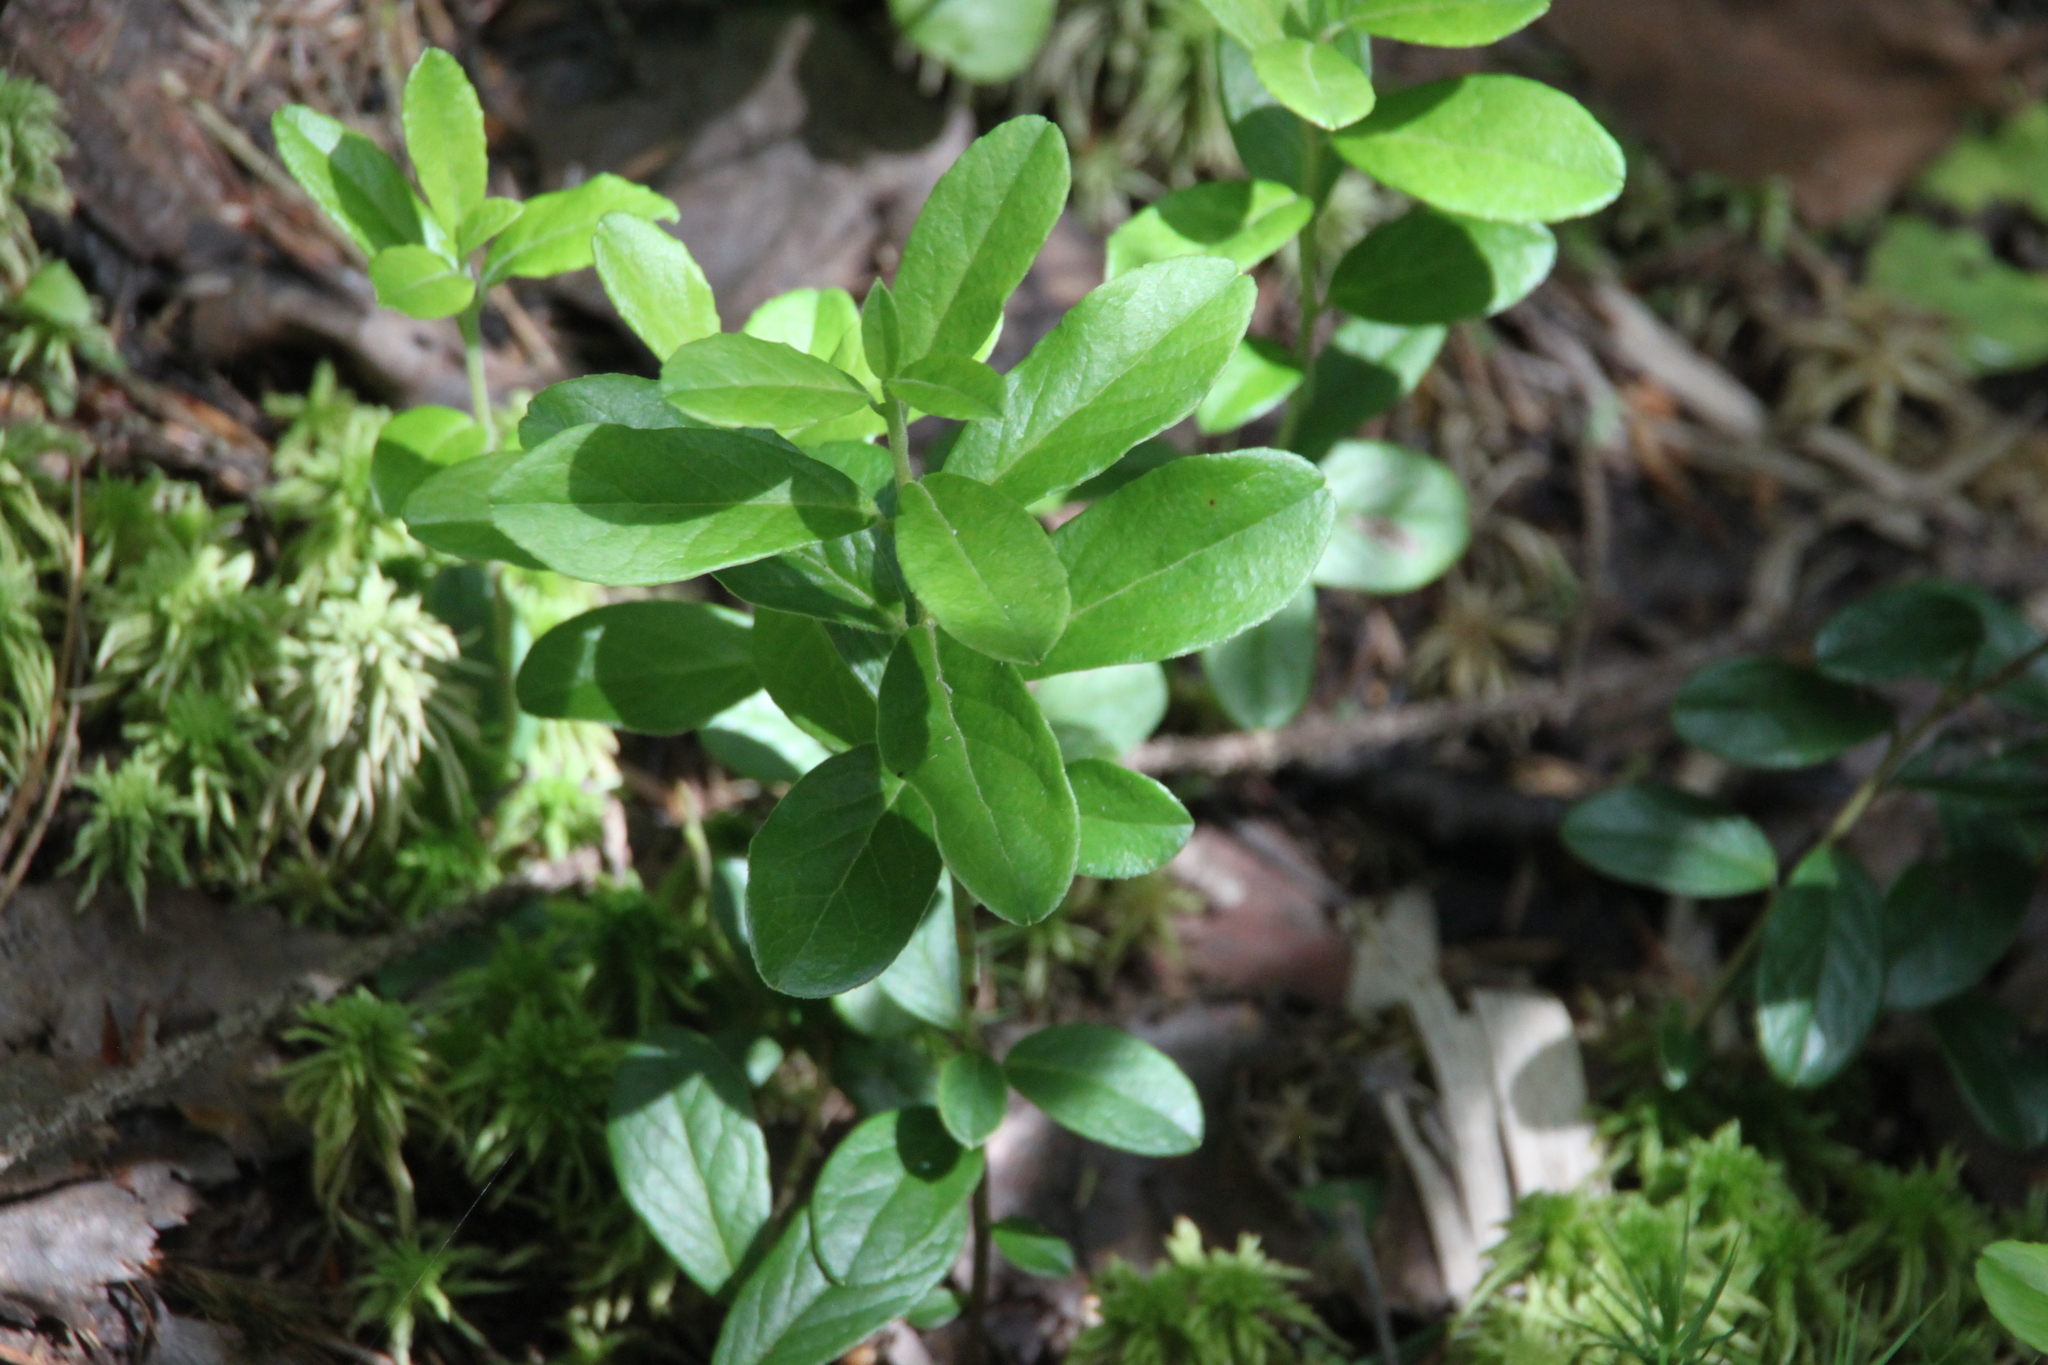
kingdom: Plantae
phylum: Tracheophyta
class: Magnoliopsida
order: Ericales
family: Ericaceae
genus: Vaccinium
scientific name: Vaccinium vitis-idaea
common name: Cowberry
